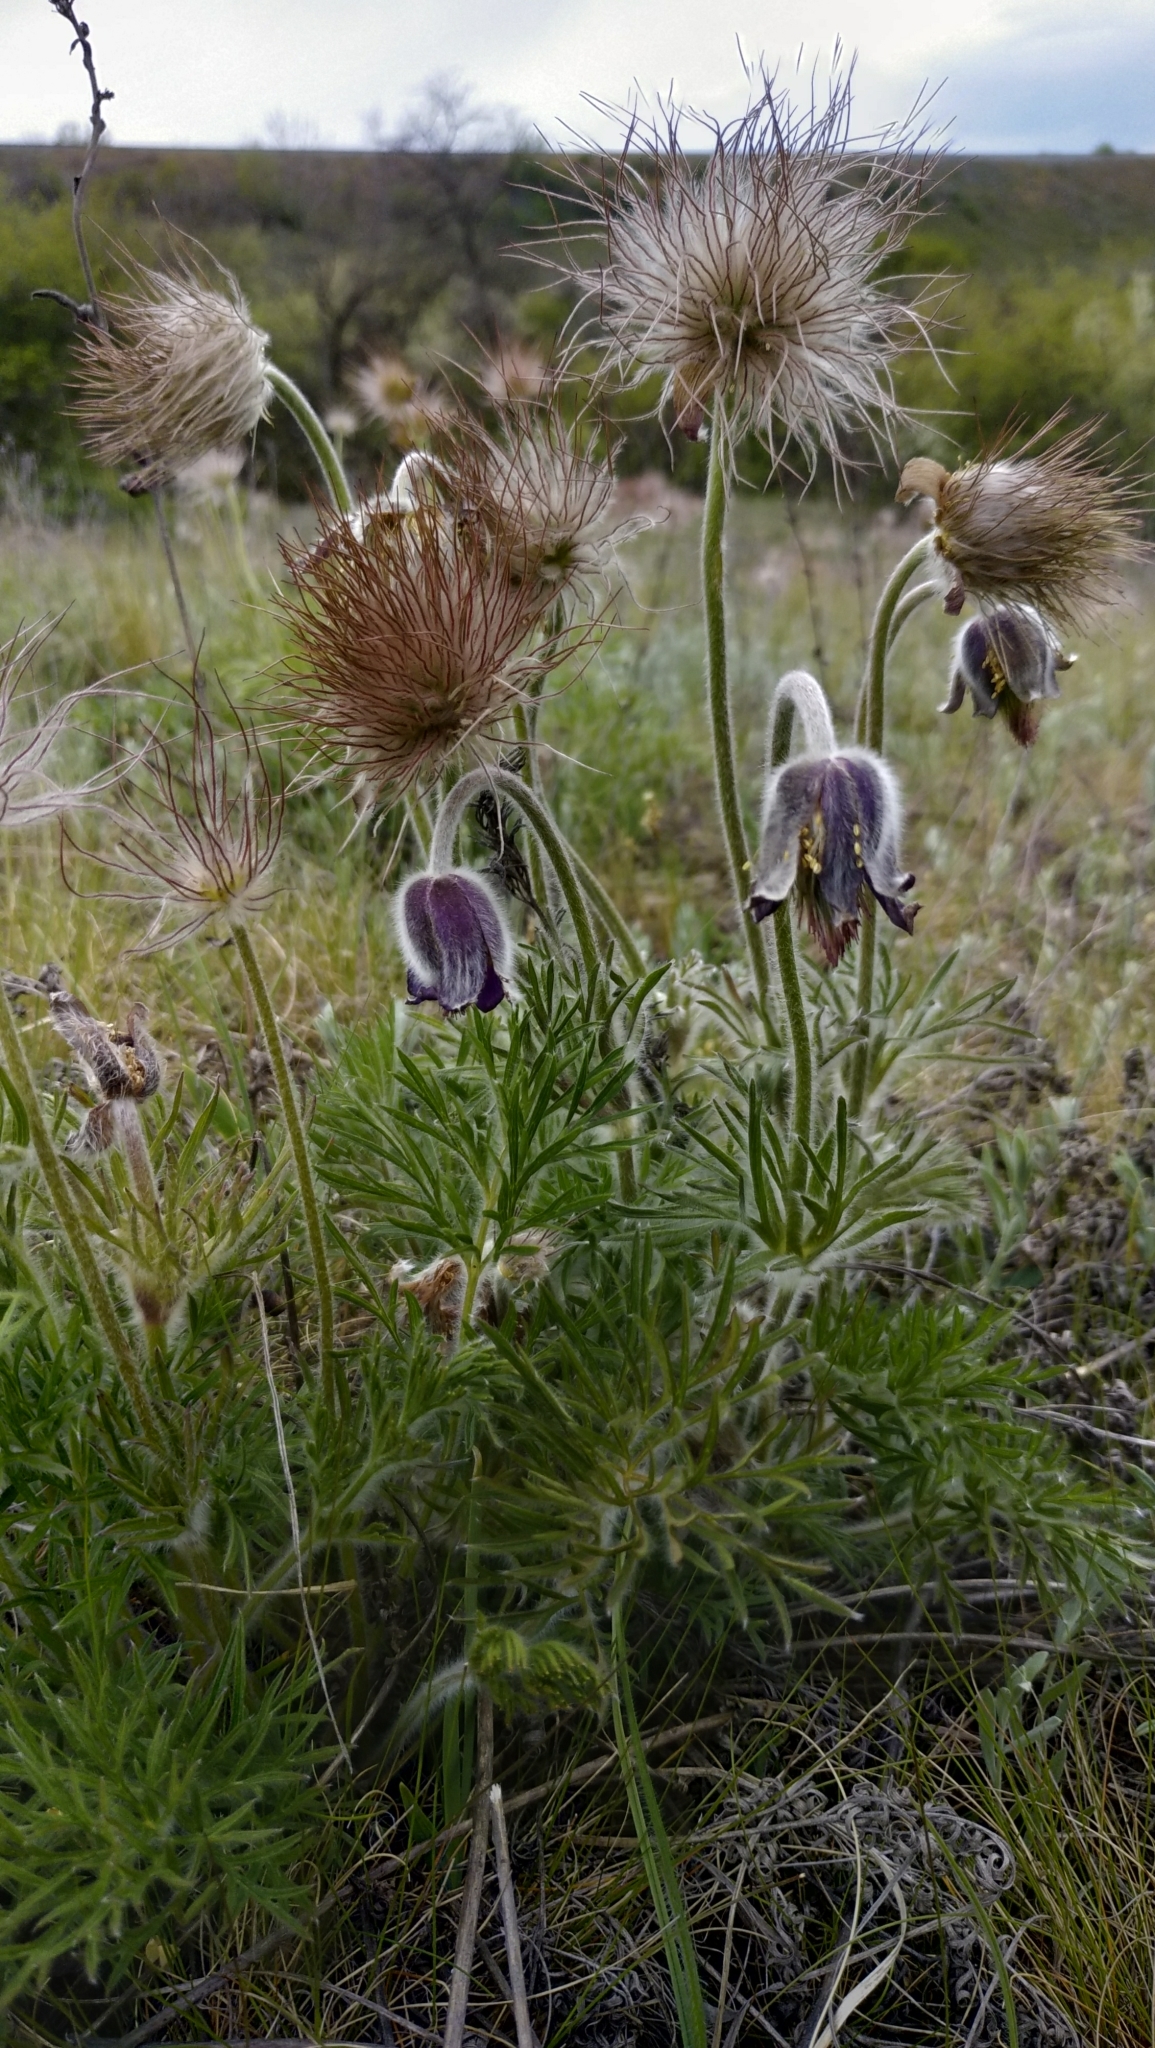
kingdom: Plantae
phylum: Tracheophyta
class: Magnoliopsida
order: Ranunculales
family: Ranunculaceae
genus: Pulsatilla
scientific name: Pulsatilla pratensis
